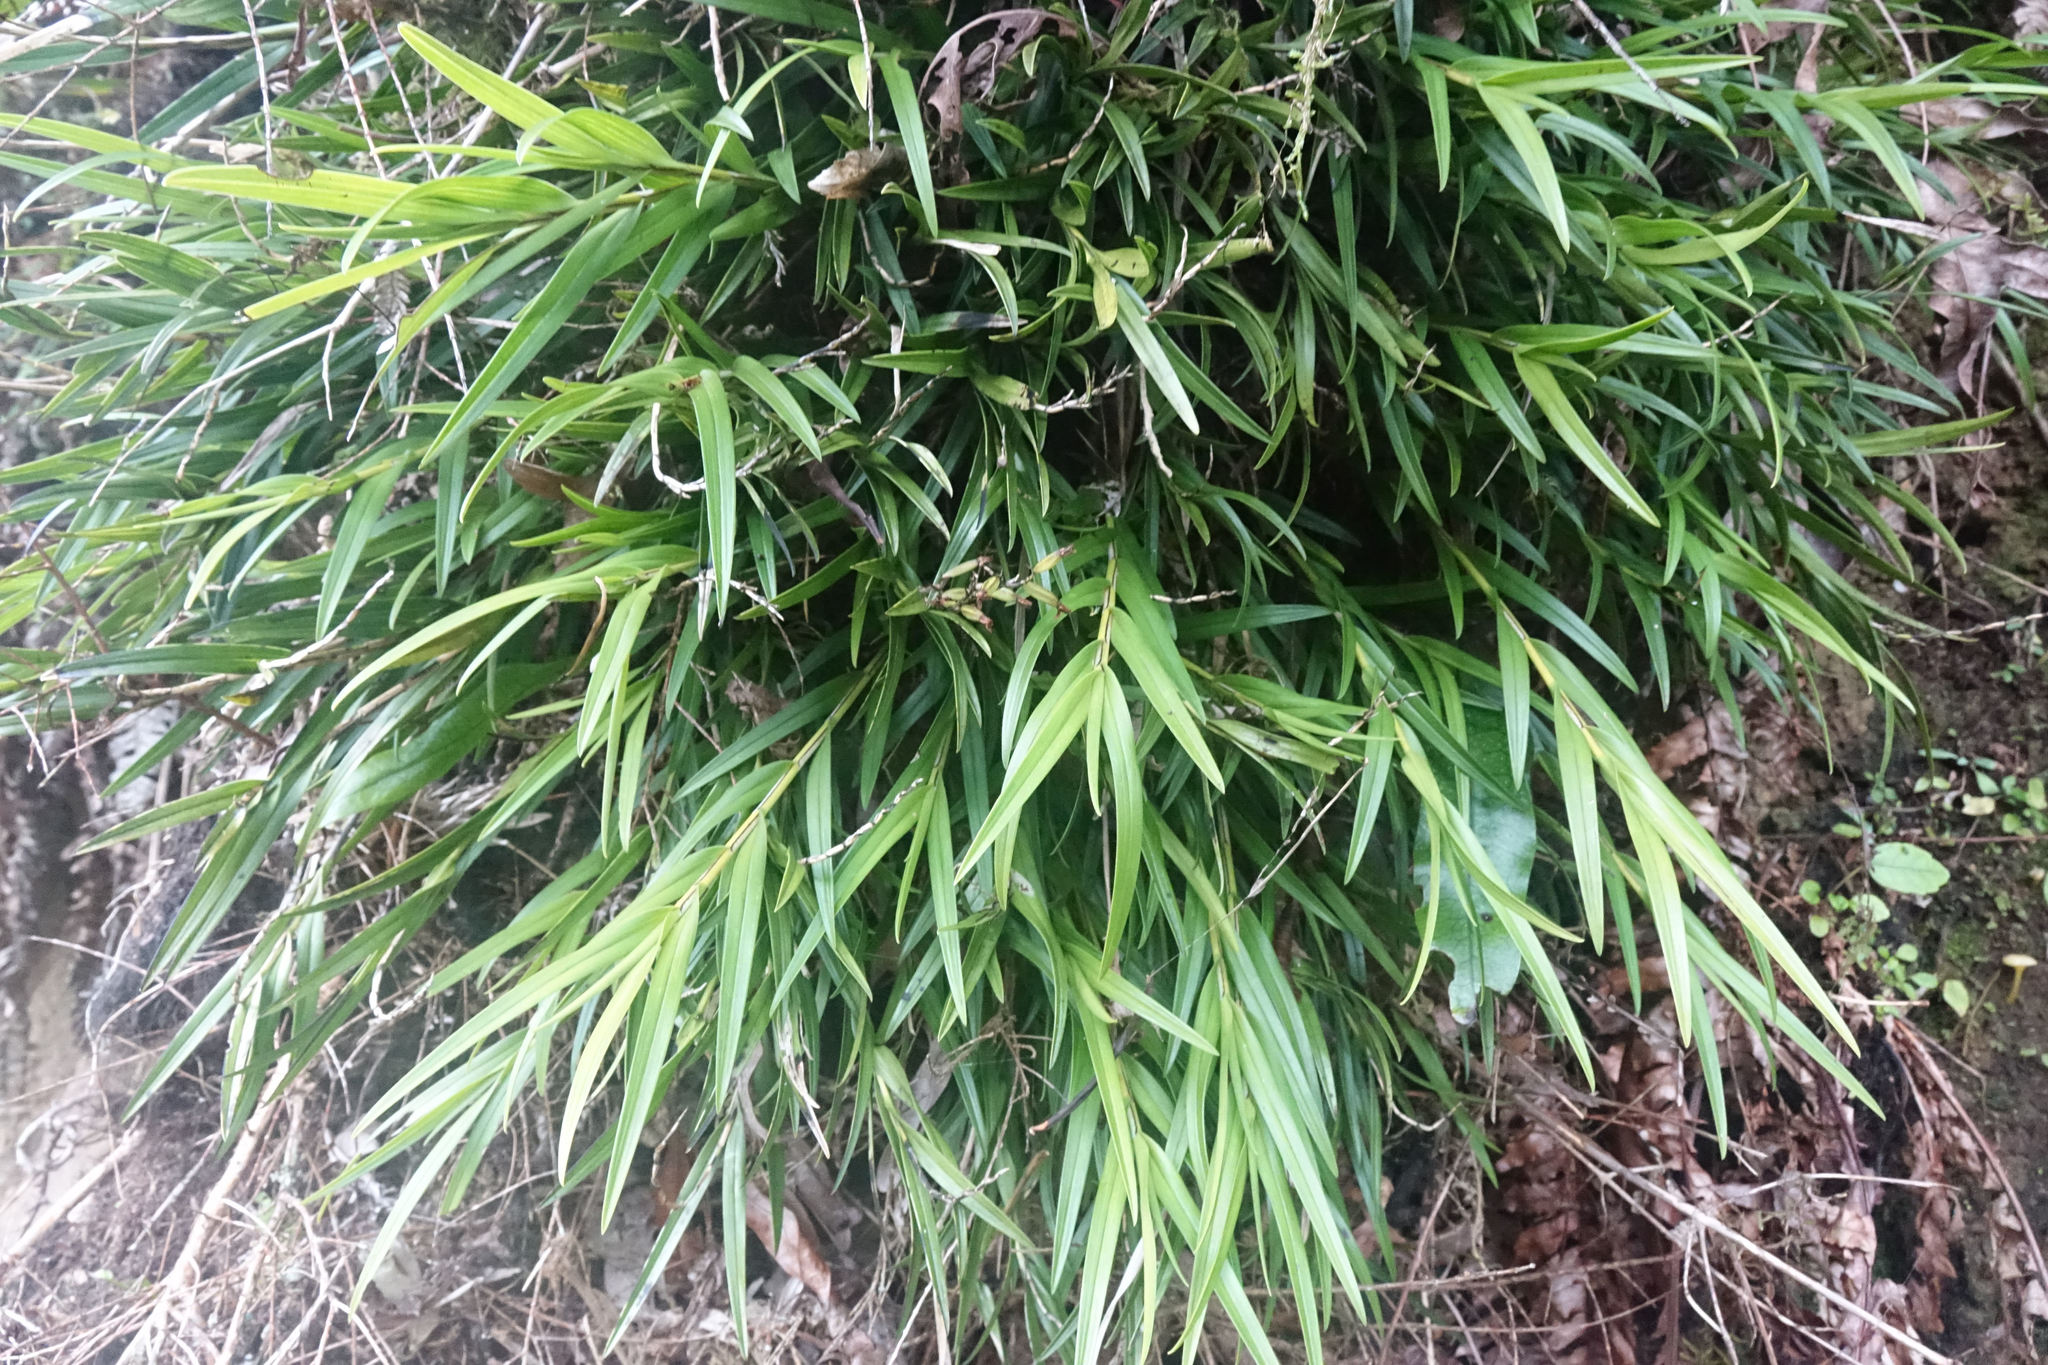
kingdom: Plantae
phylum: Tracheophyta
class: Liliopsida
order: Asparagales
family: Orchidaceae
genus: Earina
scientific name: Earina autumnalis
